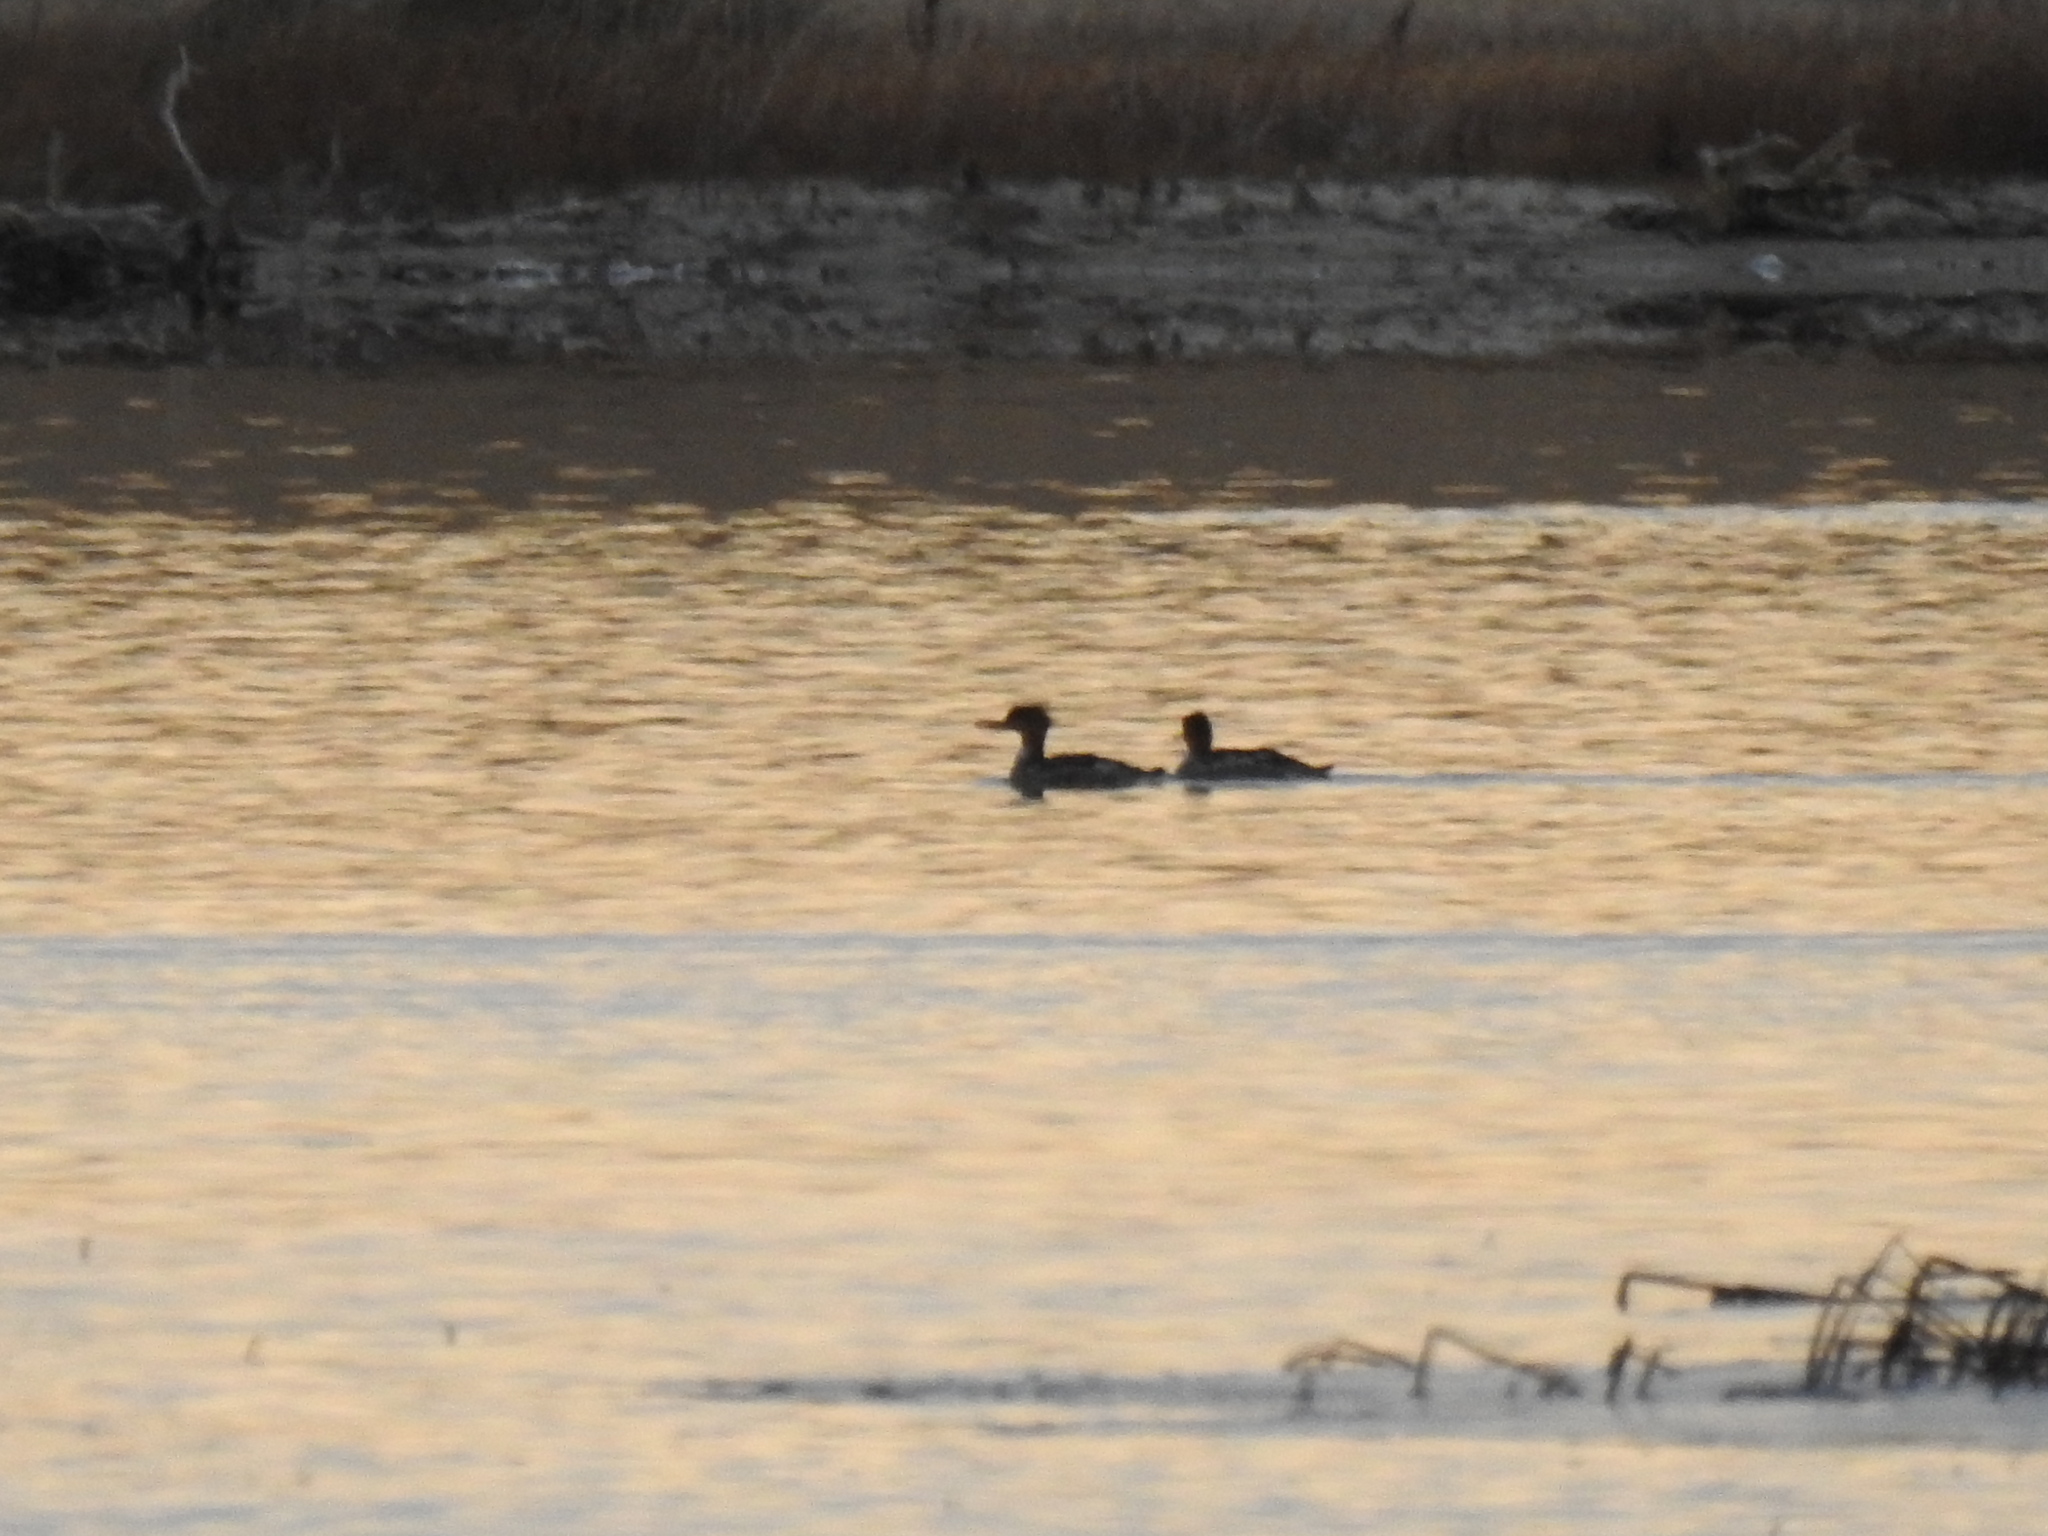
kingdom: Animalia
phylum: Chordata
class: Aves
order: Anseriformes
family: Anatidae
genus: Mergus
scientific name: Mergus serrator
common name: Red-breasted merganser
